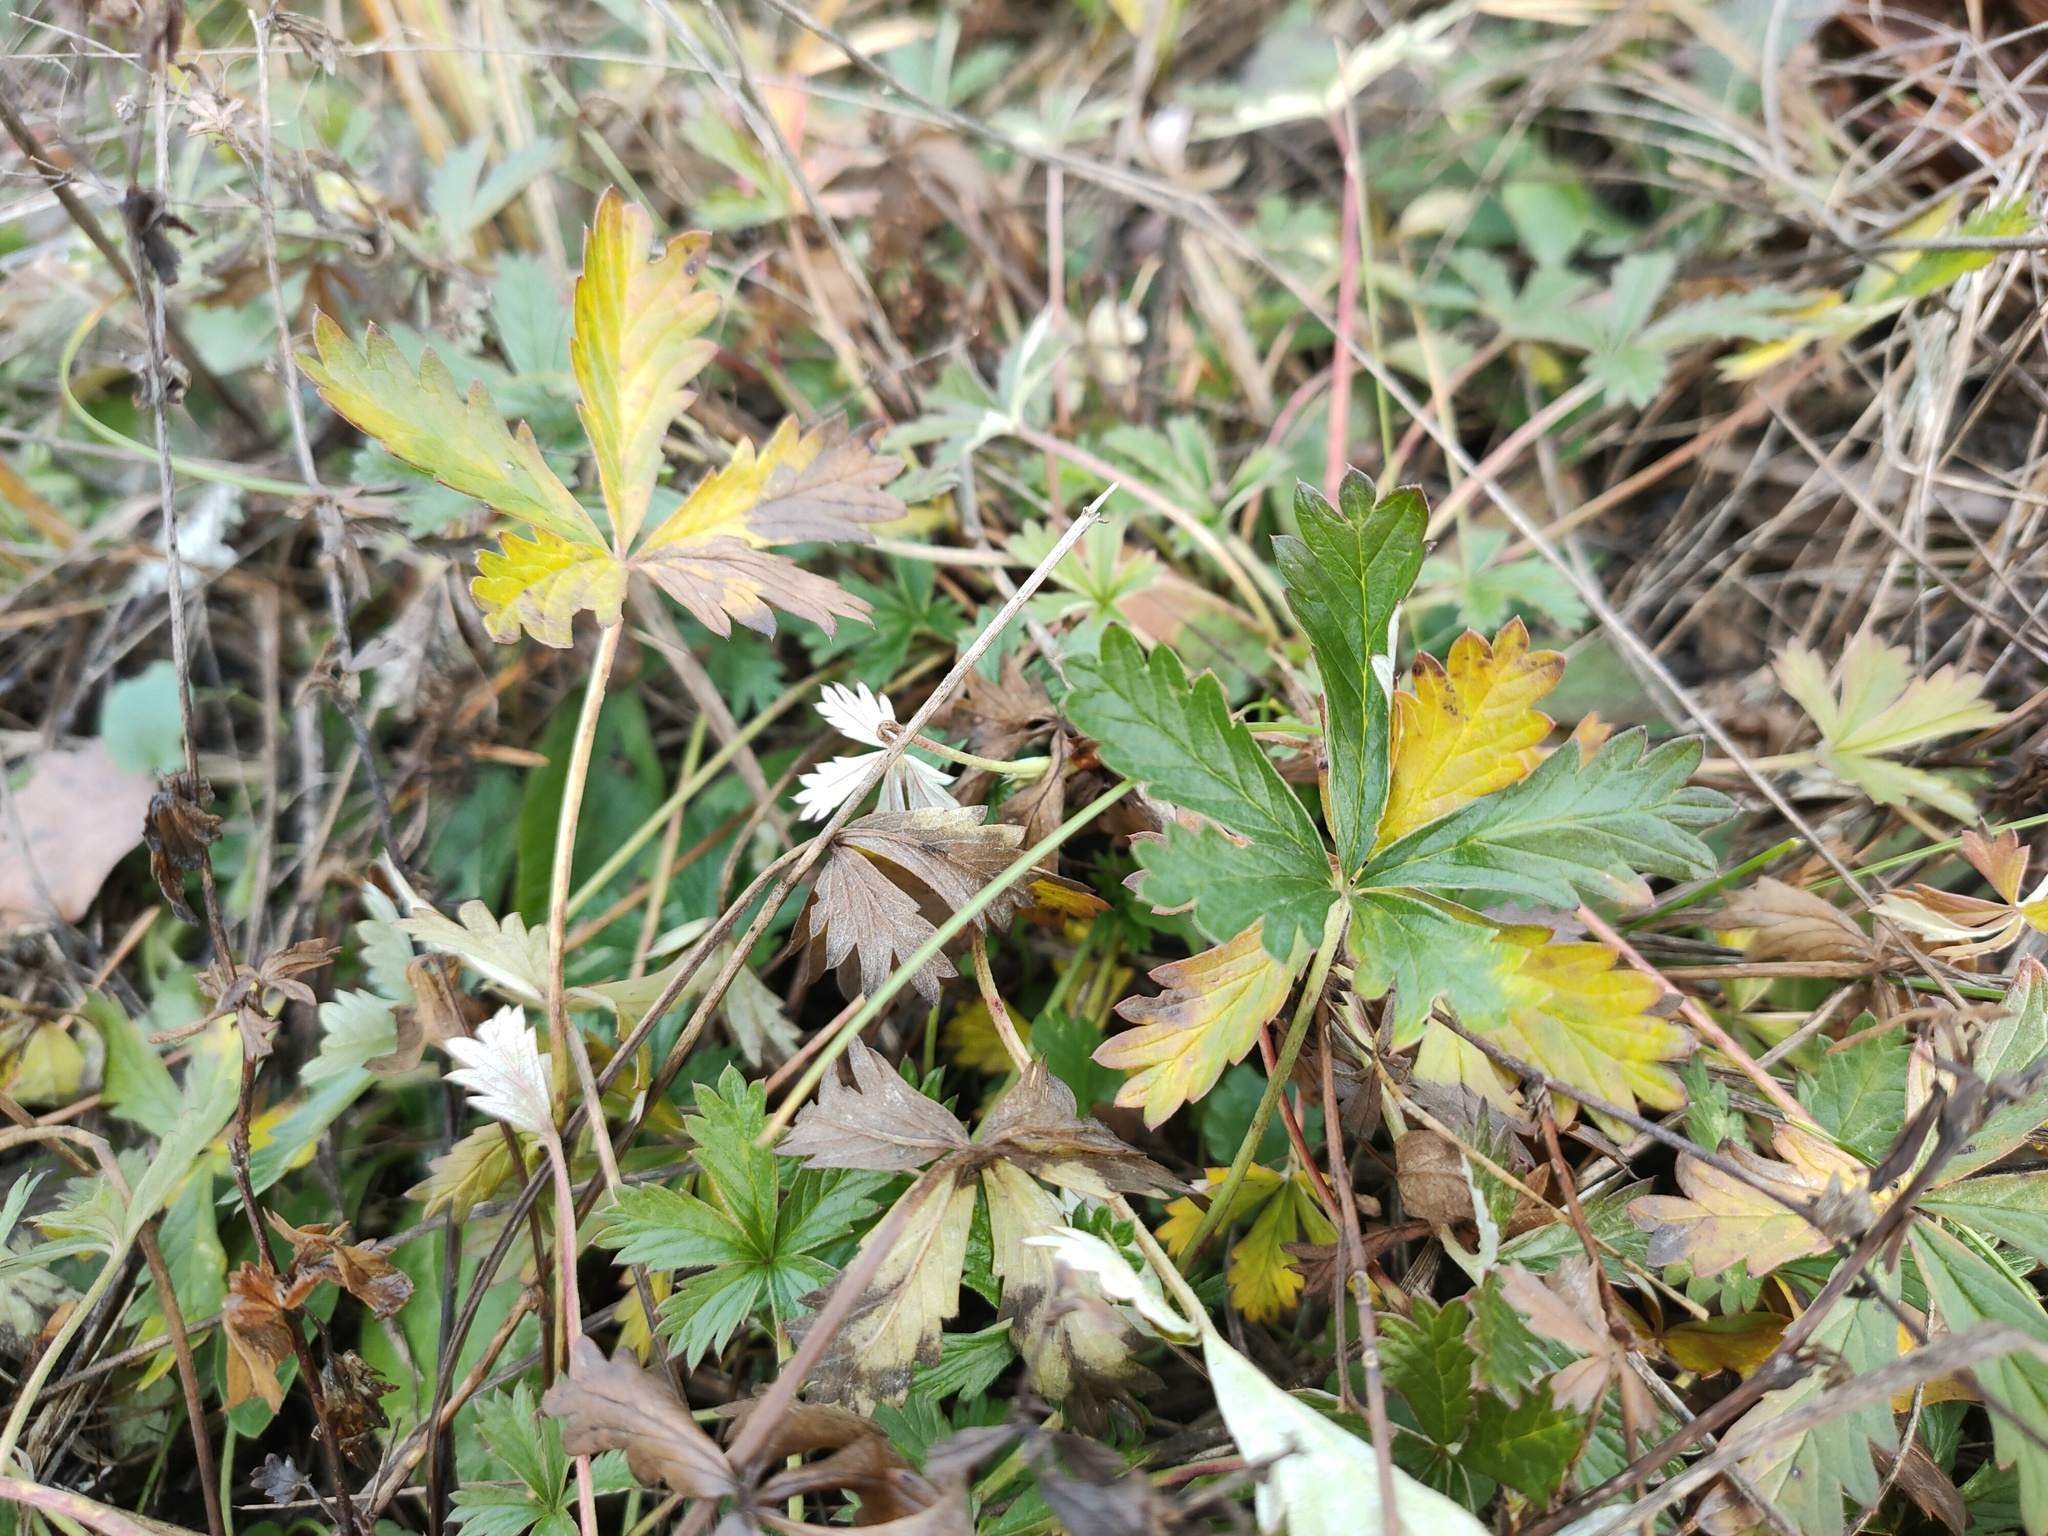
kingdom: Plantae
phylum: Tracheophyta
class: Magnoliopsida
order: Rosales
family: Rosaceae
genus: Potentilla
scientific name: Potentilla argentea
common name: Hoary cinquefoil
